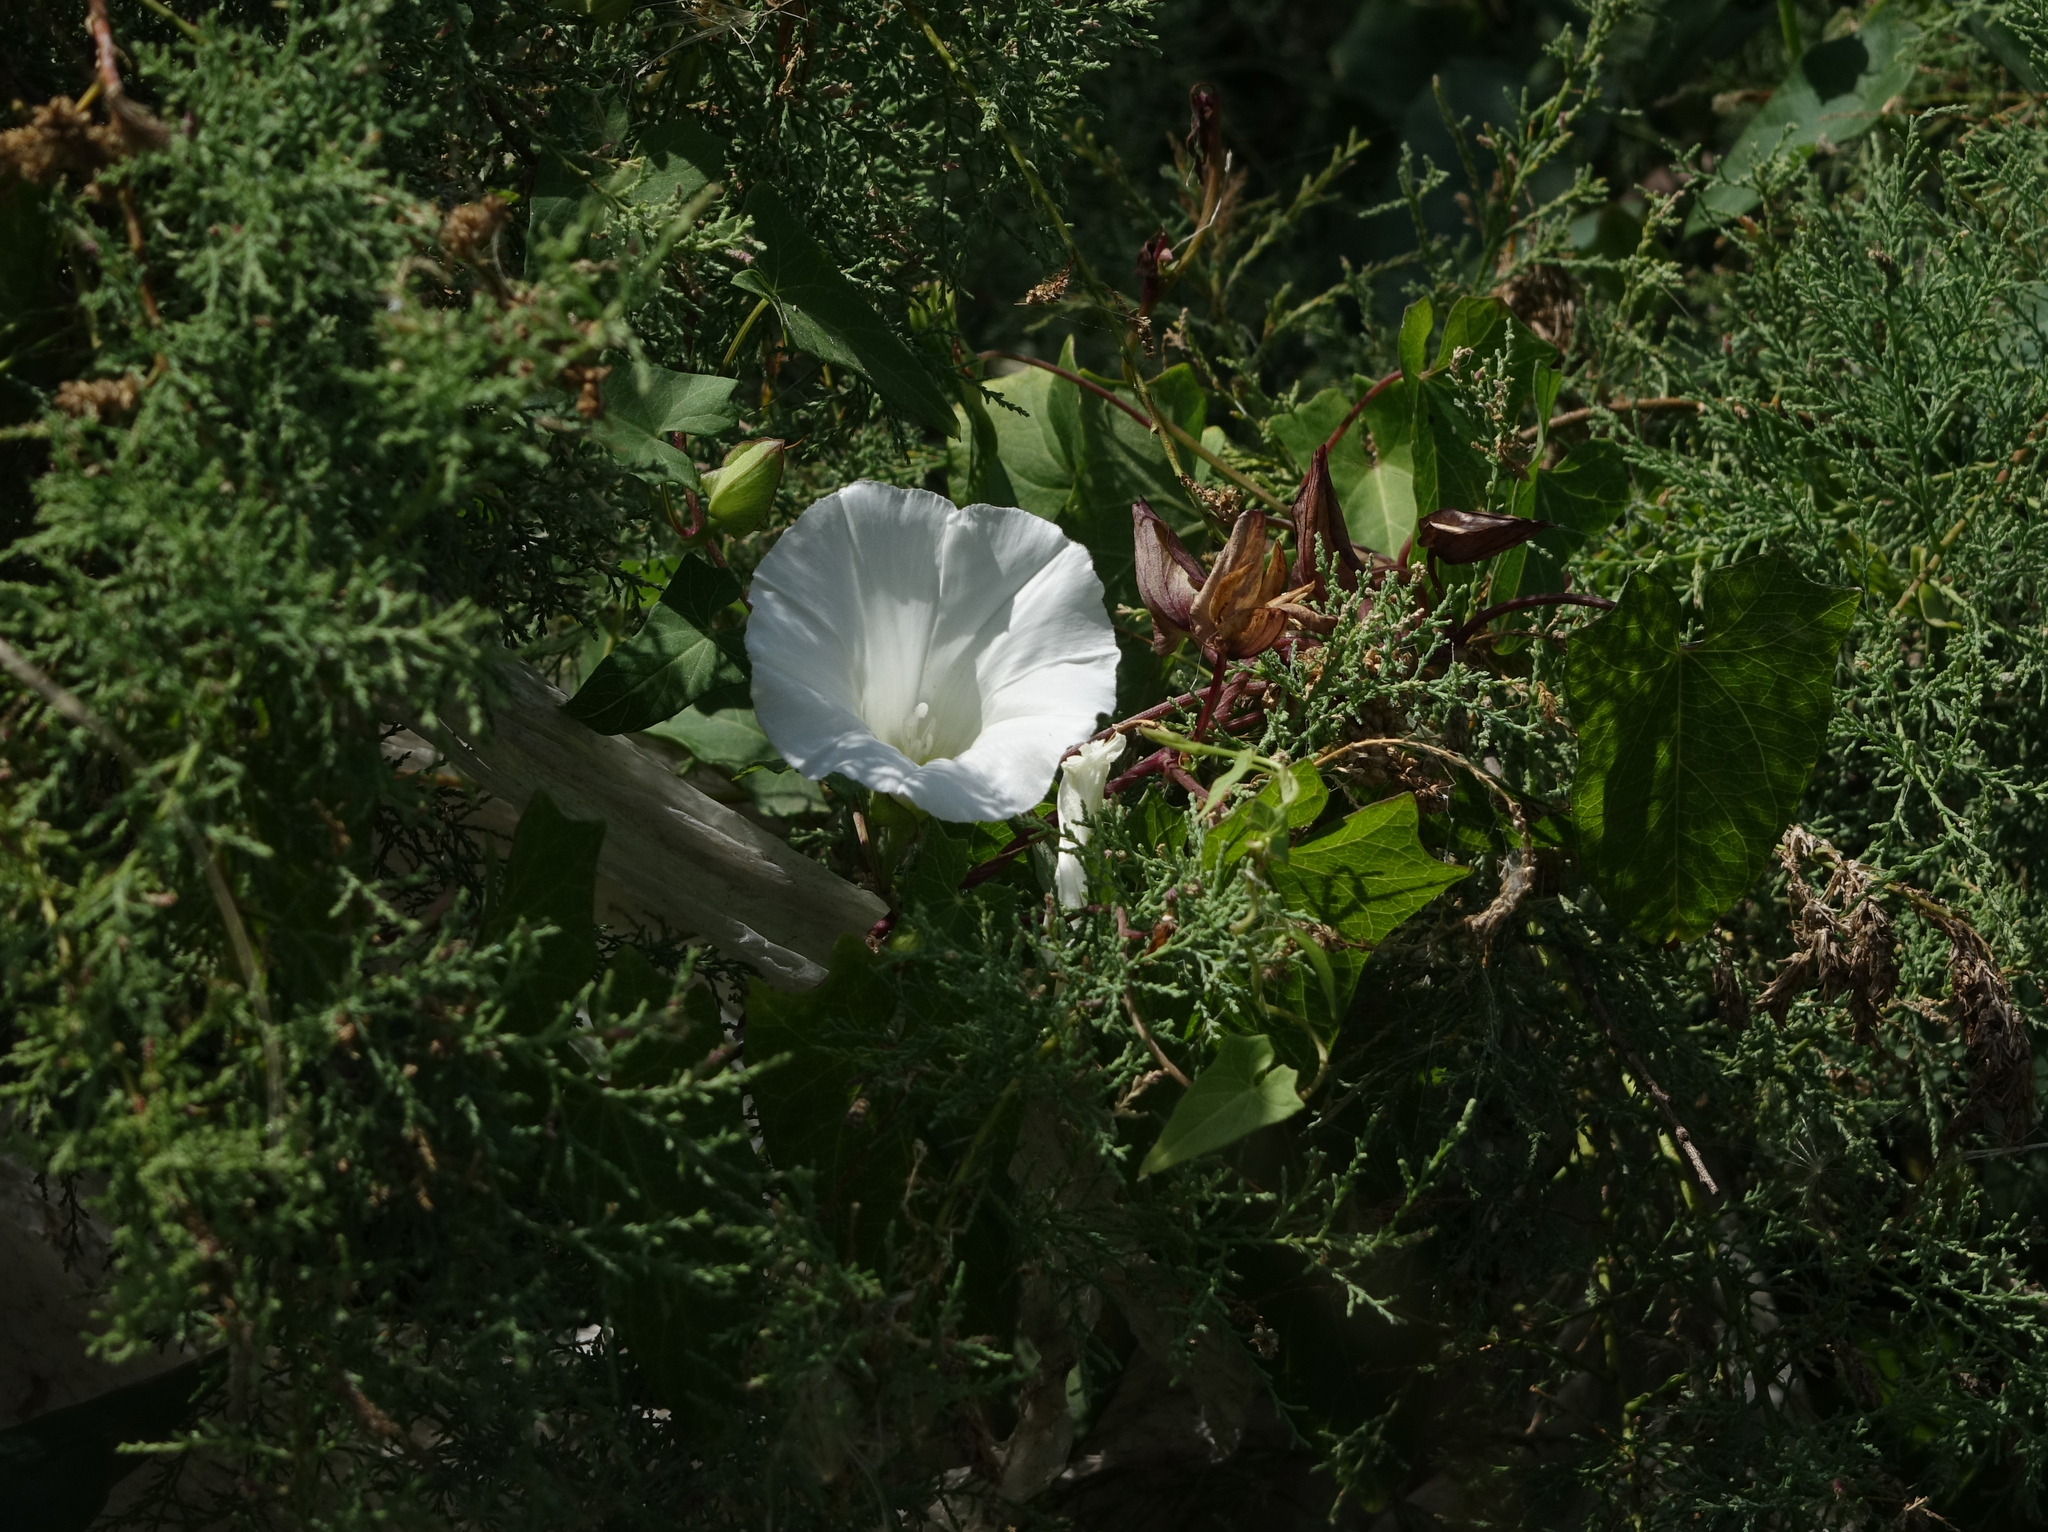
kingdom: Plantae
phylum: Tracheophyta
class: Magnoliopsida
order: Solanales
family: Convolvulaceae
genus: Calystegia
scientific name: Calystegia silvatica
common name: Large bindweed
